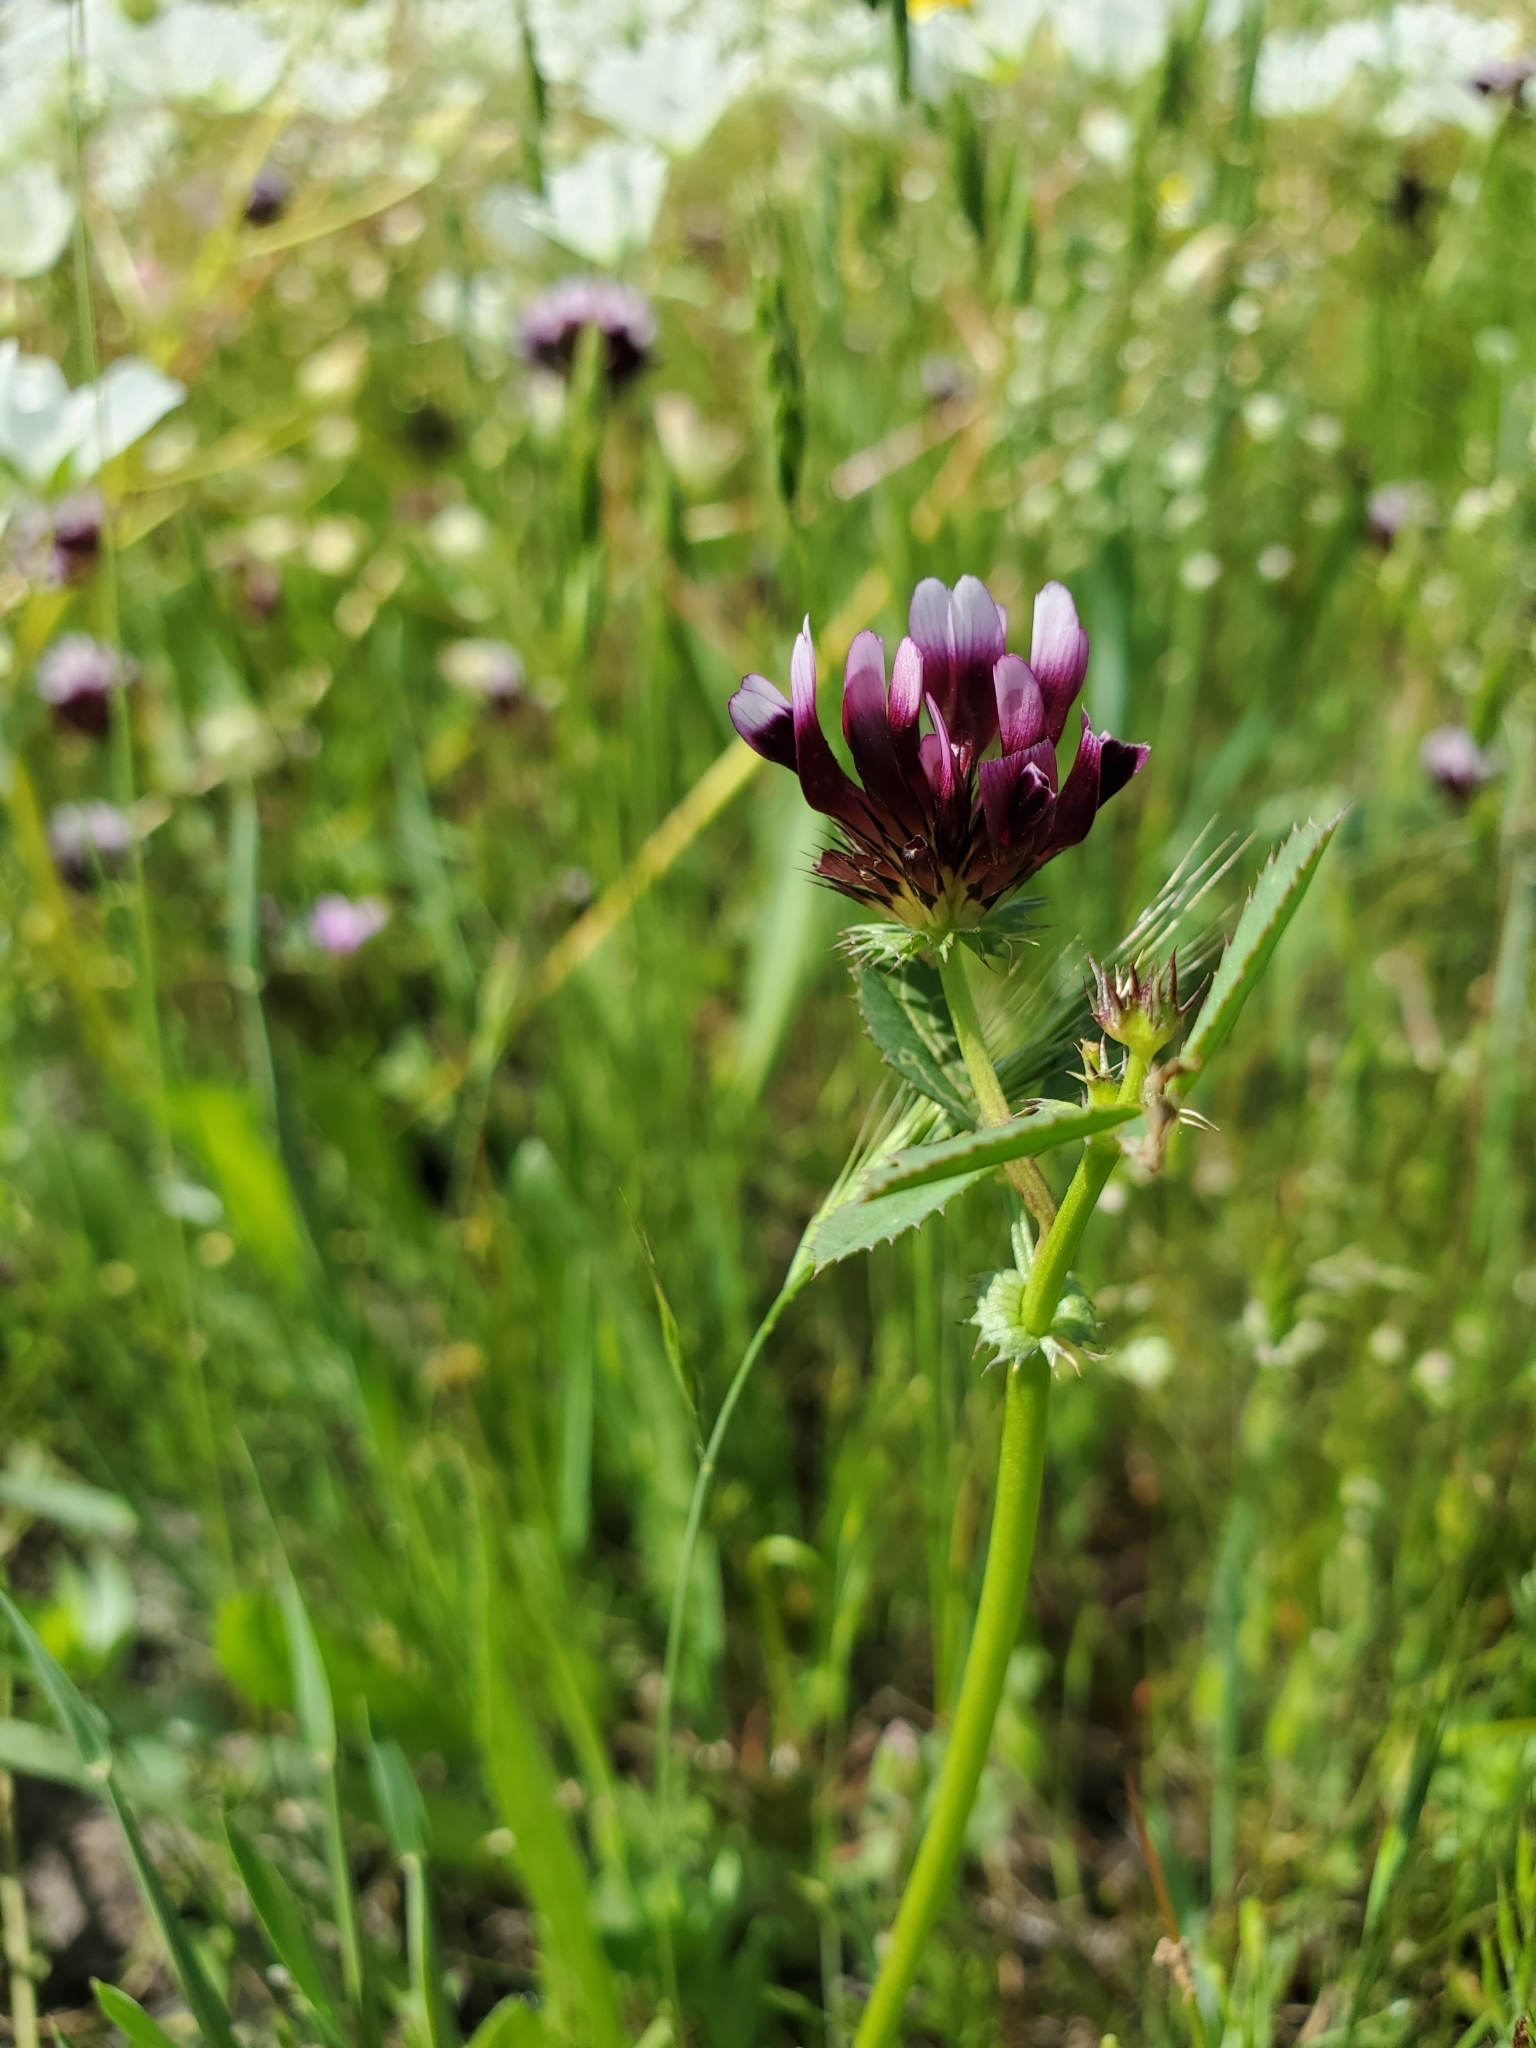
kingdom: Plantae
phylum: Tracheophyta
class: Magnoliopsida
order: Fabales
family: Fabaceae
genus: Trifolium
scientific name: Trifolium variegatum
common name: Whitetip clover
